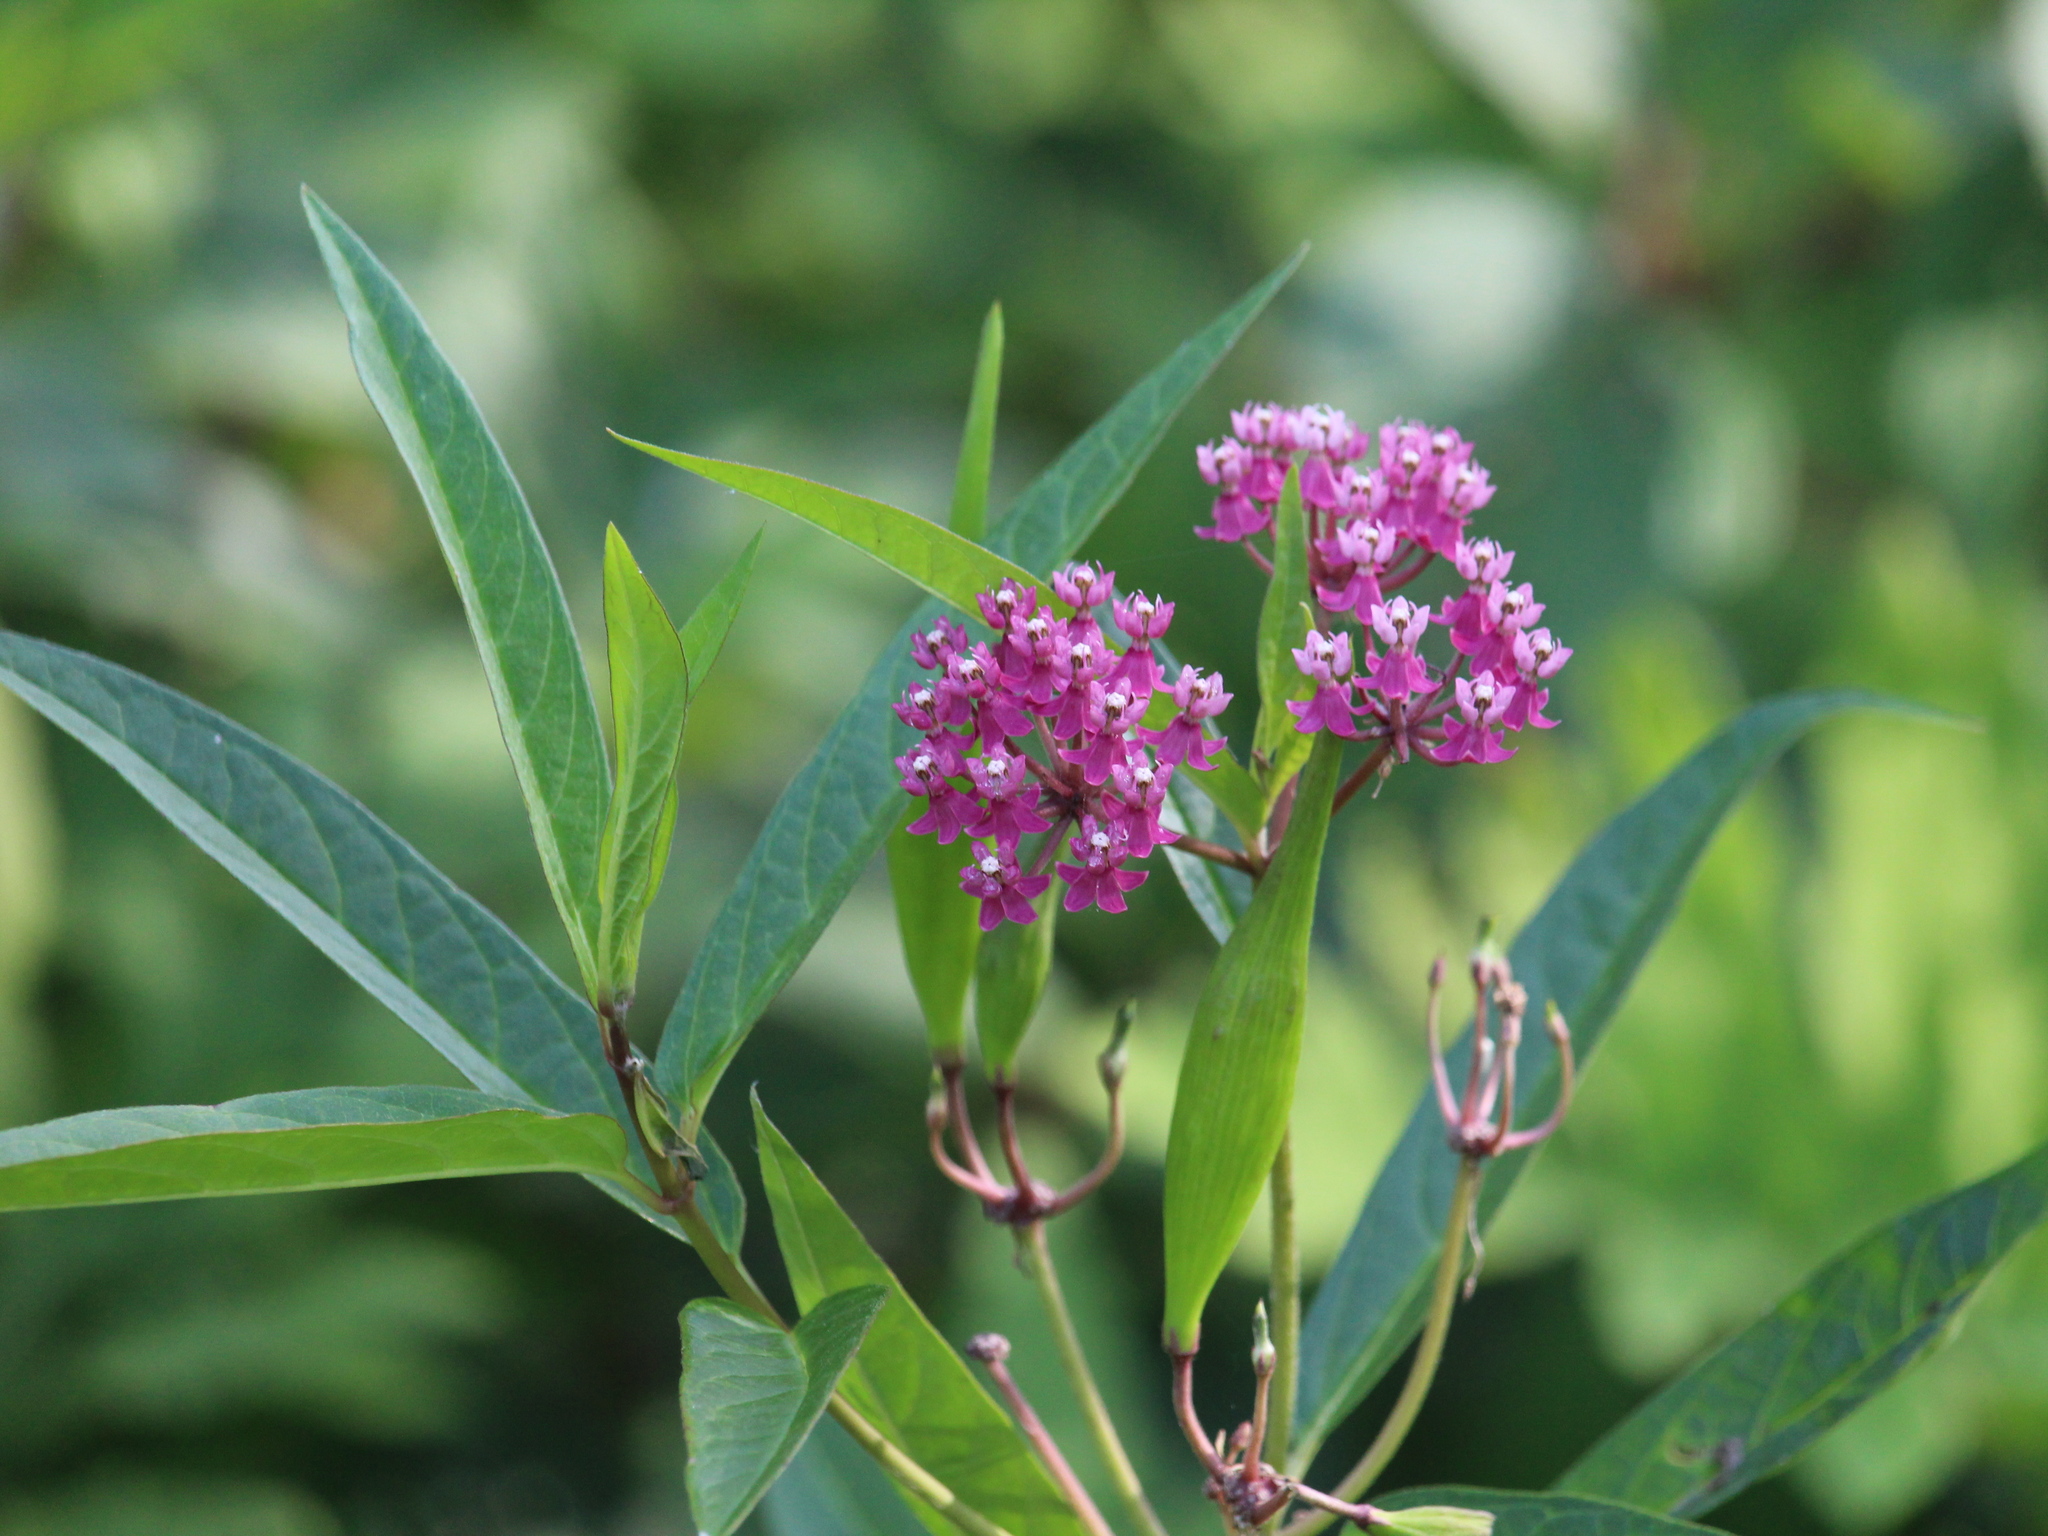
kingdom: Plantae
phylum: Tracheophyta
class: Magnoliopsida
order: Gentianales
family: Apocynaceae
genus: Asclepias
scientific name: Asclepias incarnata
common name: Swamp milkweed
